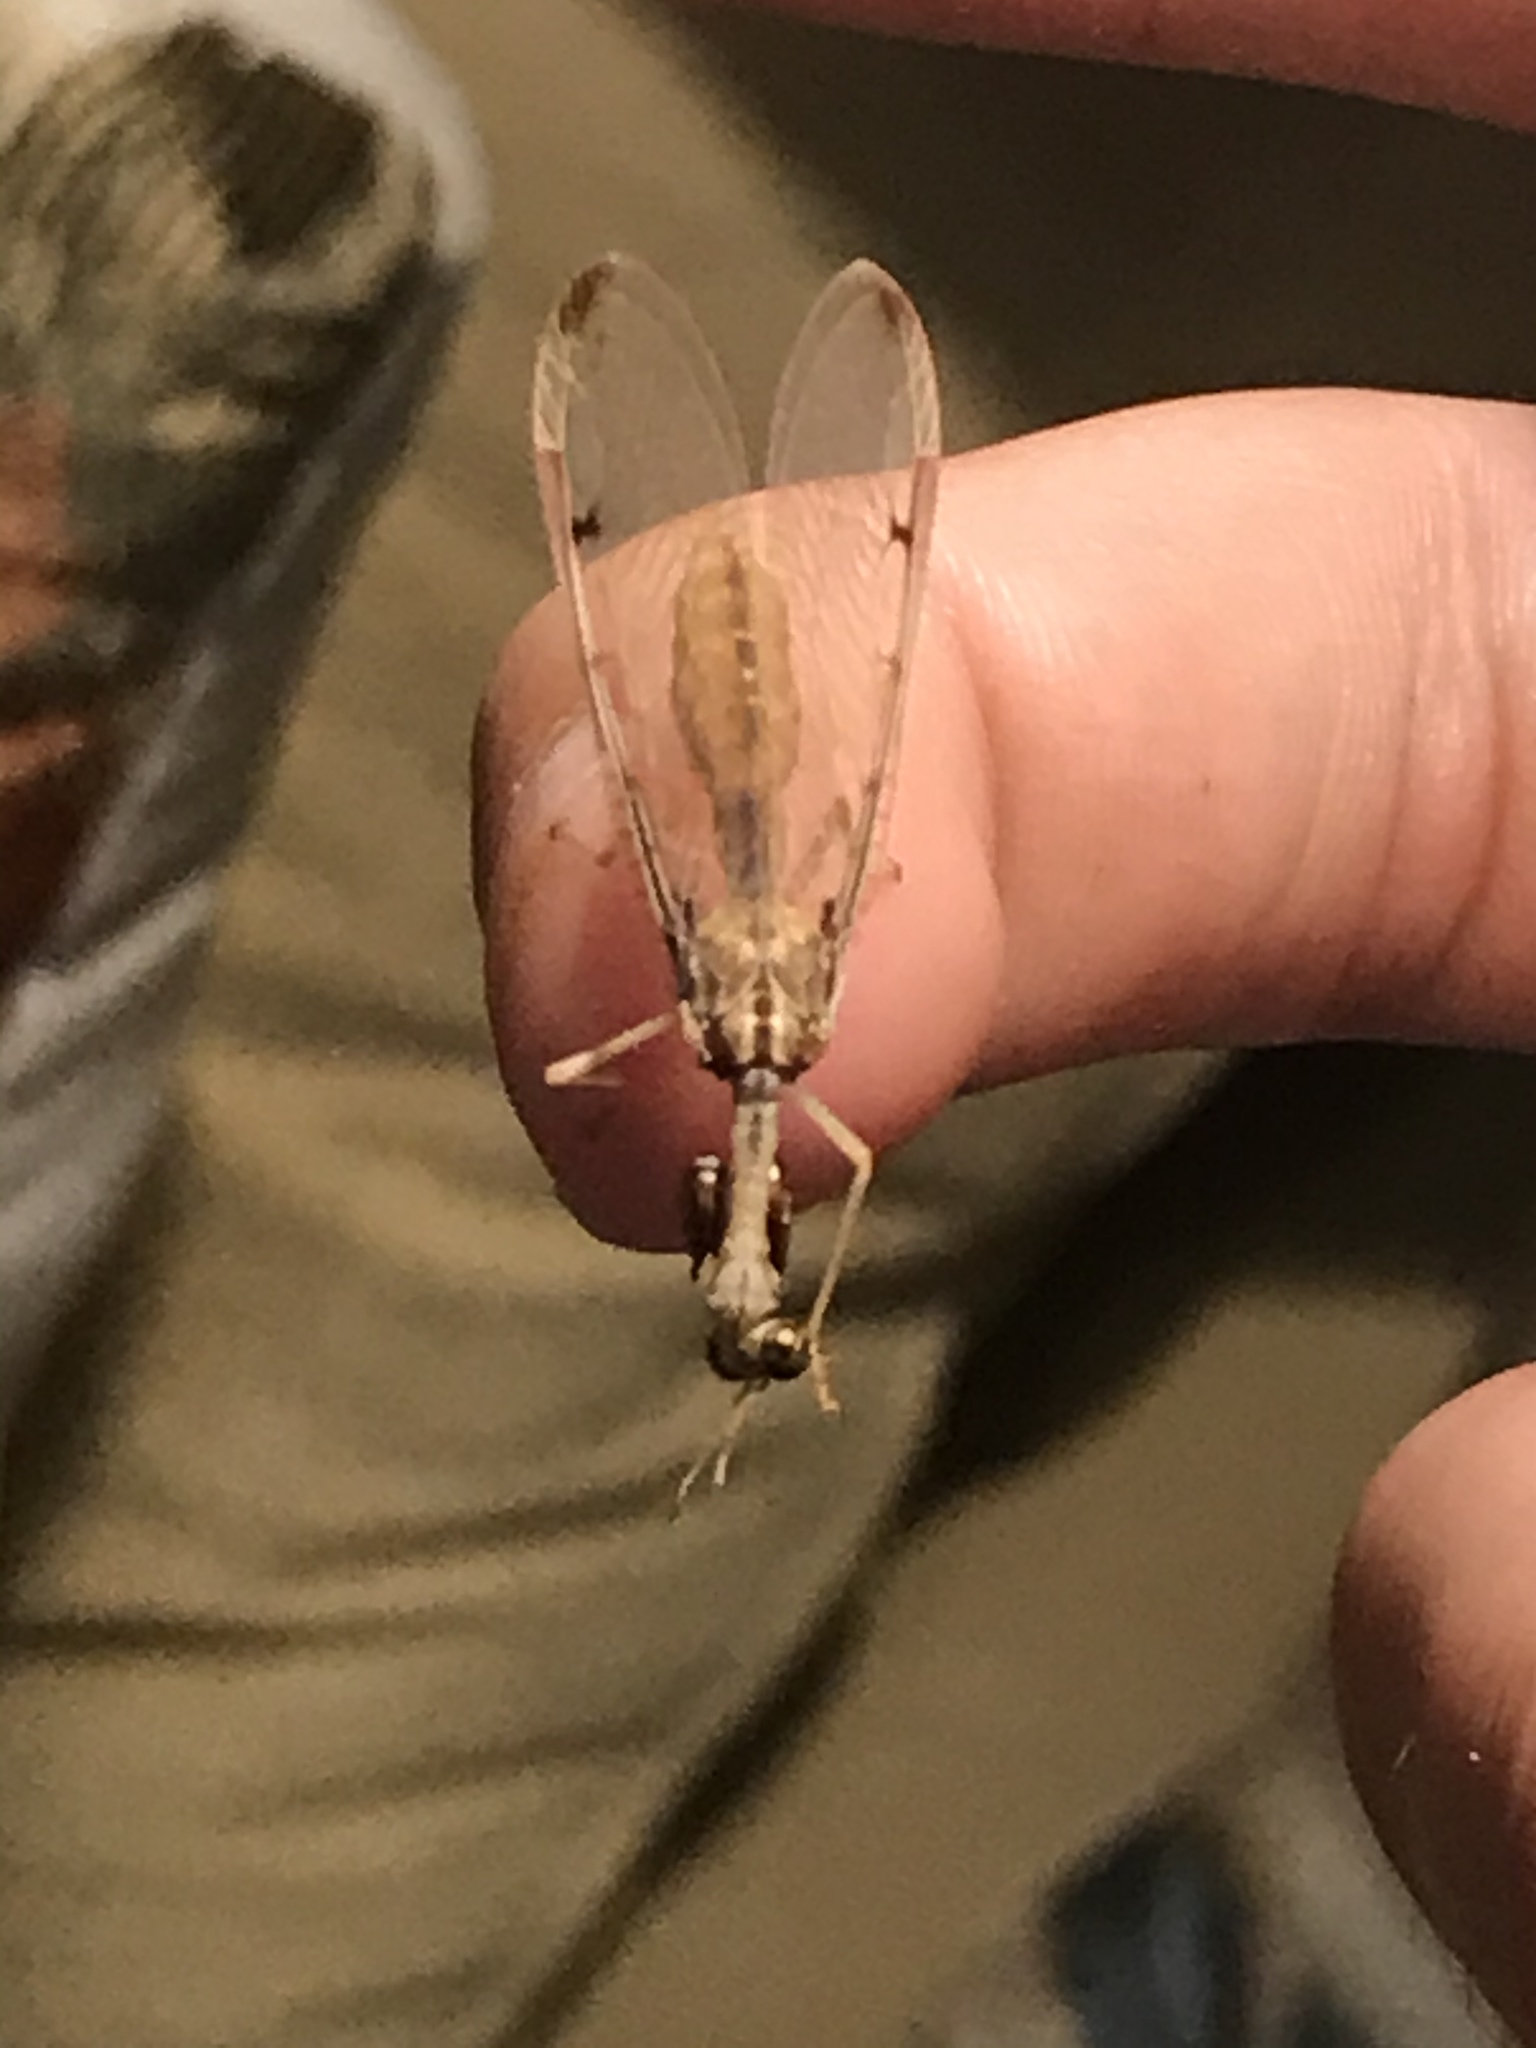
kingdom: Animalia
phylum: Arthropoda
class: Insecta
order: Neuroptera
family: Mantispidae
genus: Dicromantispa
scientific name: Dicromantispa interrupta
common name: Four-spotted mantidfly
